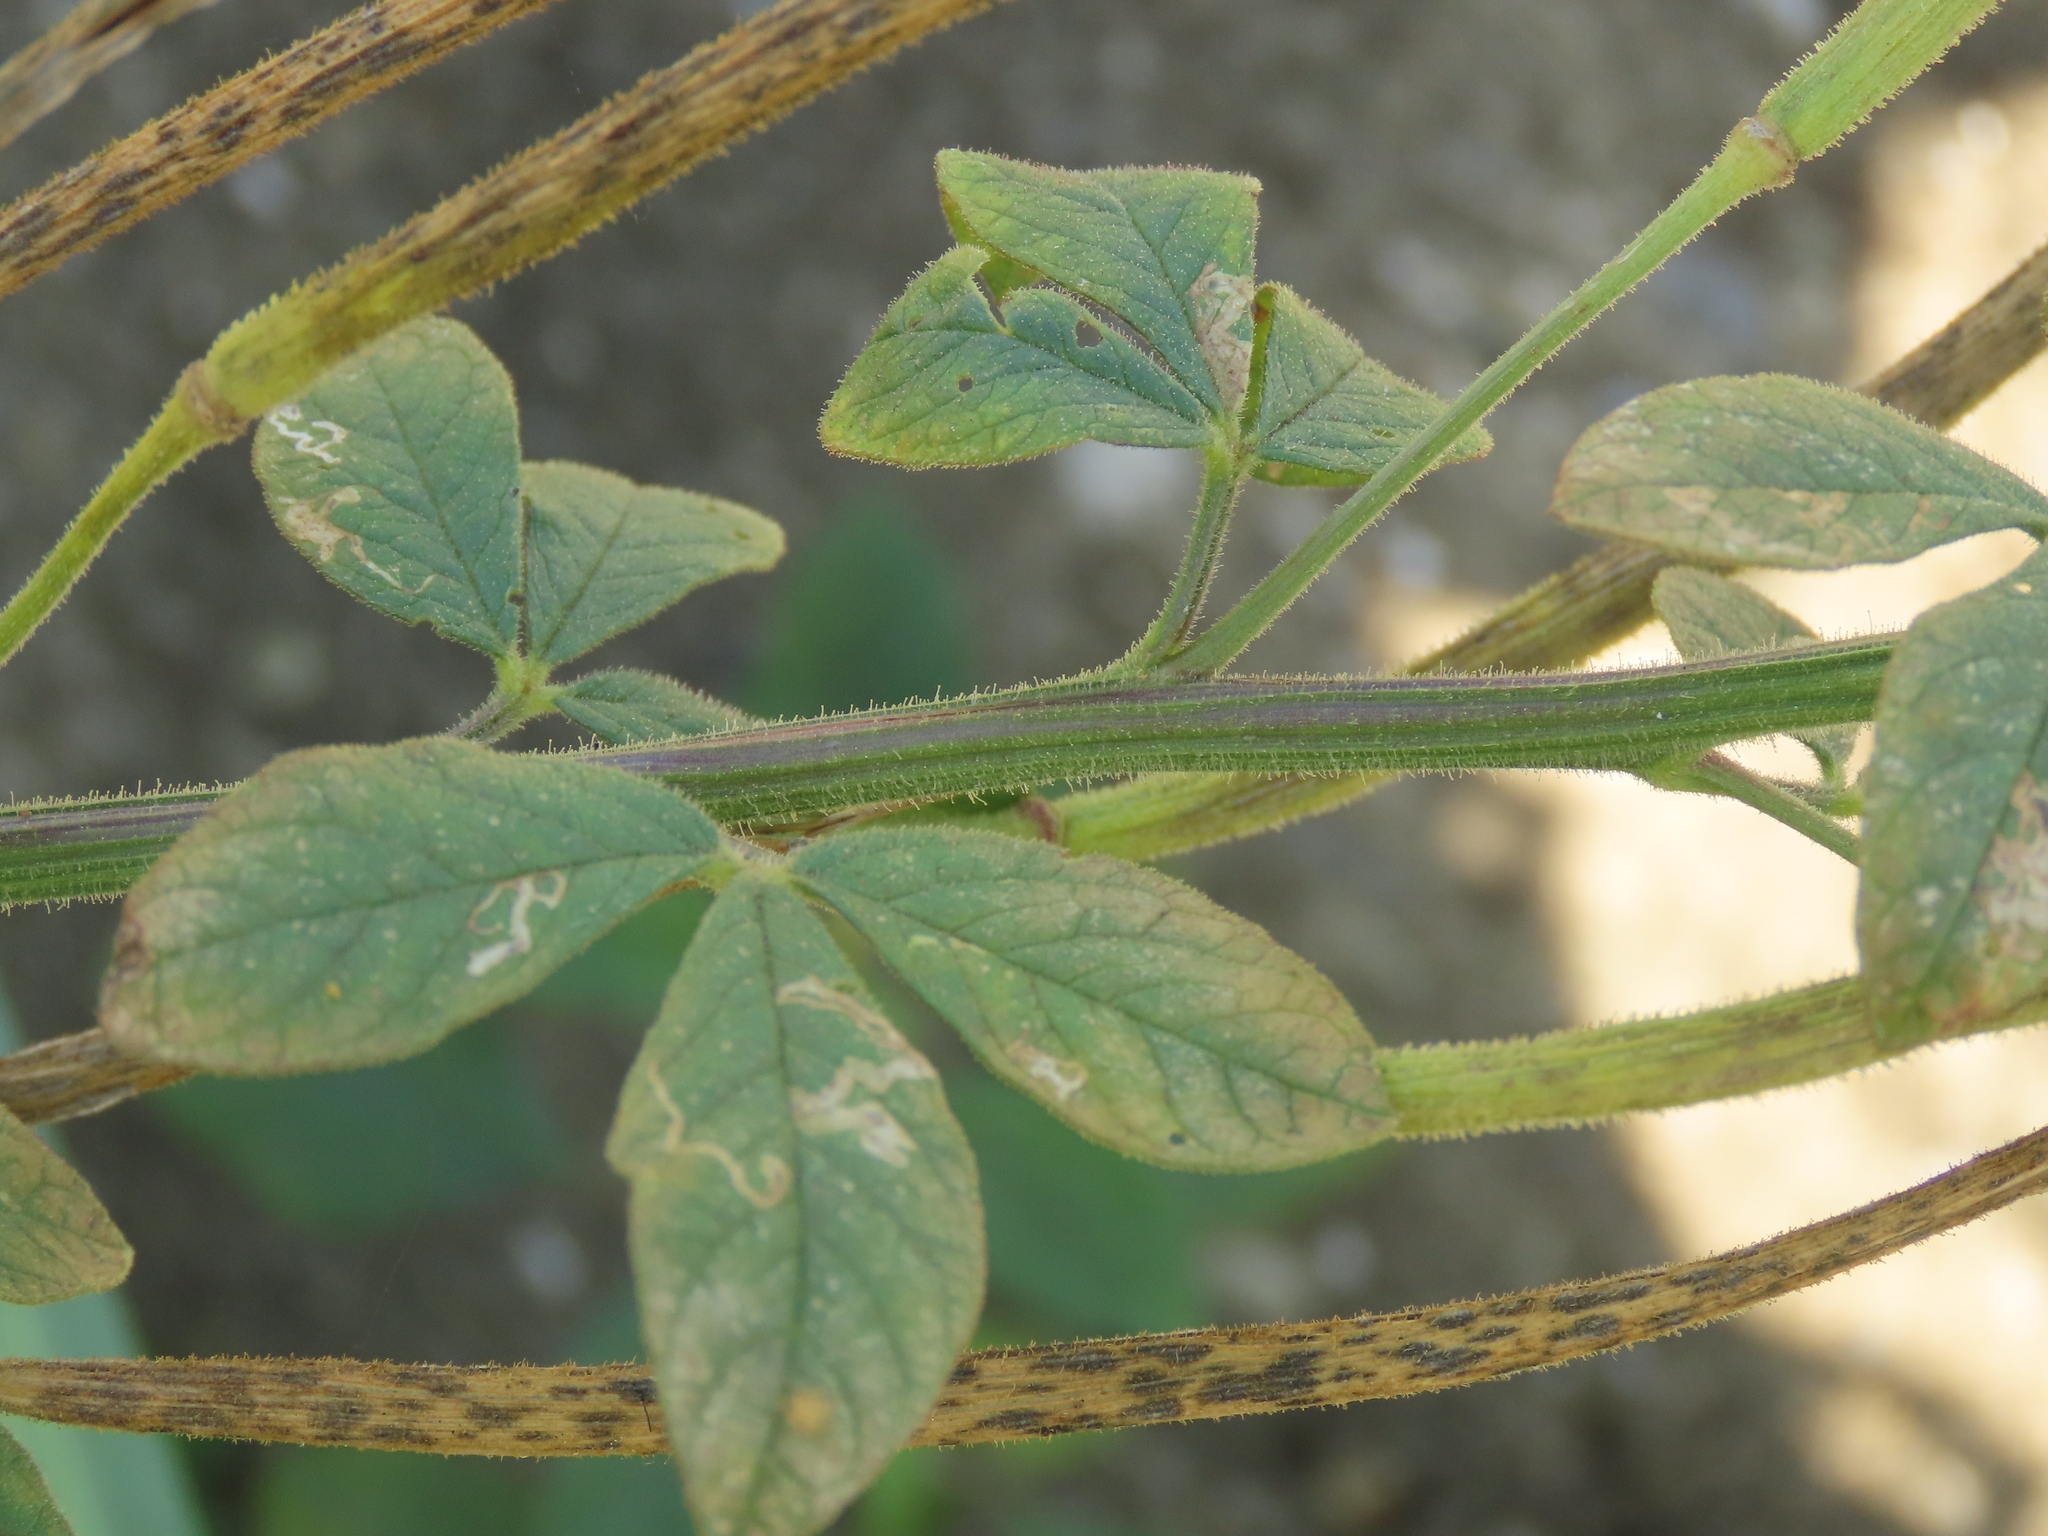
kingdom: Plantae
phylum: Tracheophyta
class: Magnoliopsida
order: Brassicales
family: Cleomaceae
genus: Arivela
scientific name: Arivela viscosa
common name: Asian spiderflower
